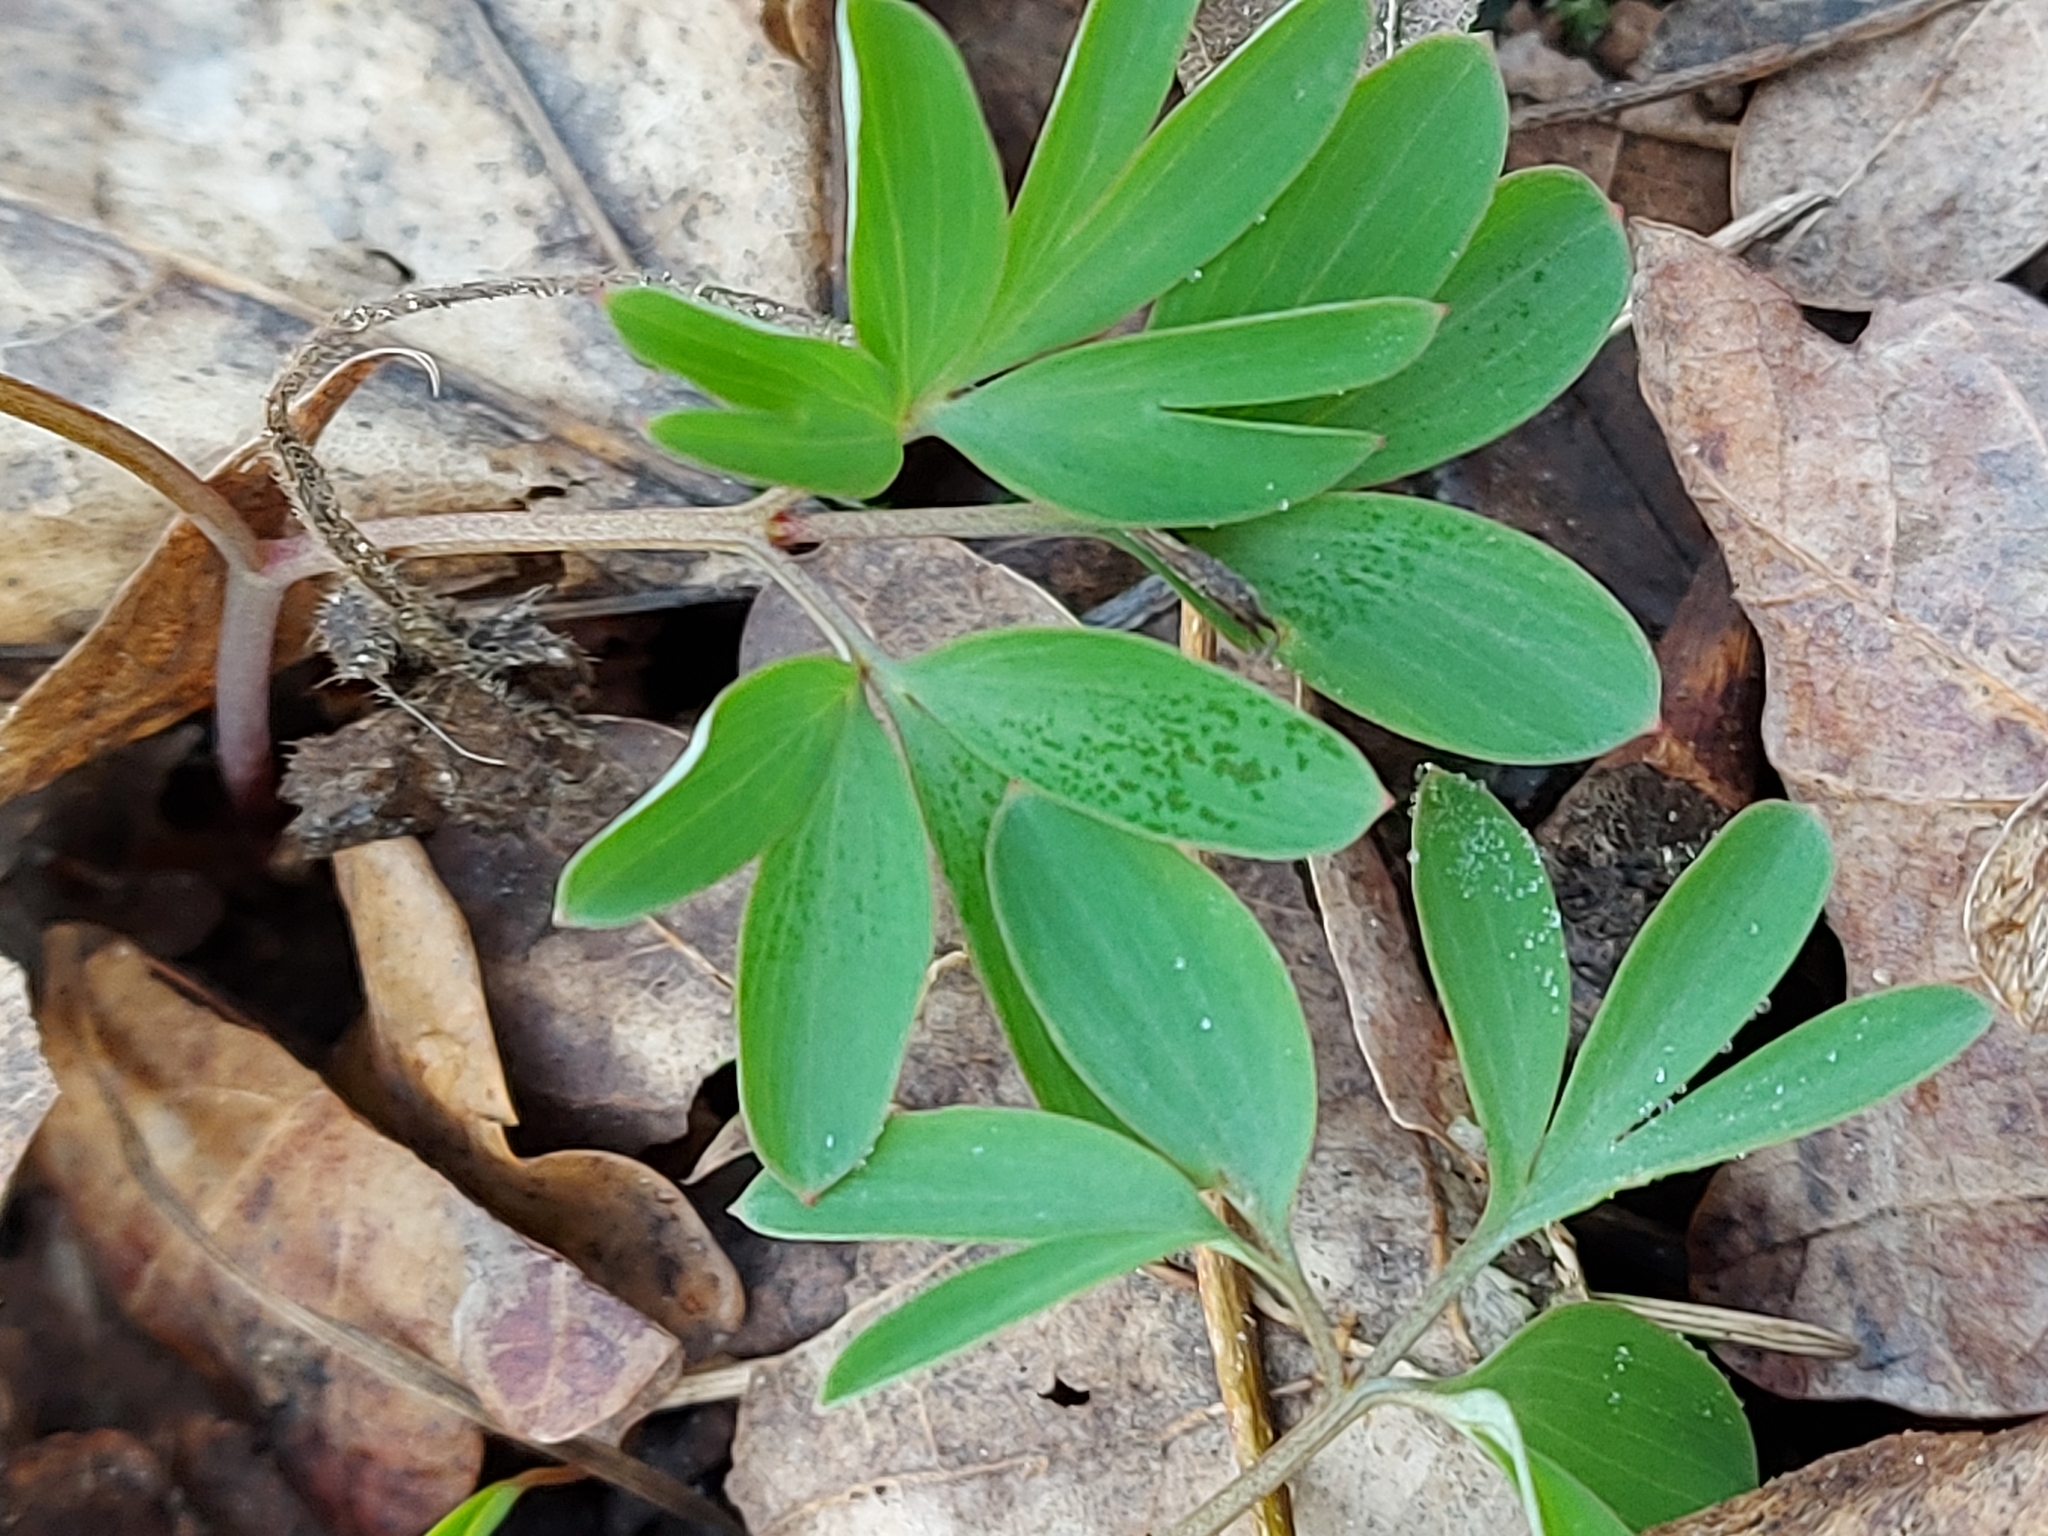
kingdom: Plantae
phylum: Tracheophyta
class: Magnoliopsida
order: Ranunculales
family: Papaveraceae
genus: Corydalis
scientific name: Corydalis intermedia
